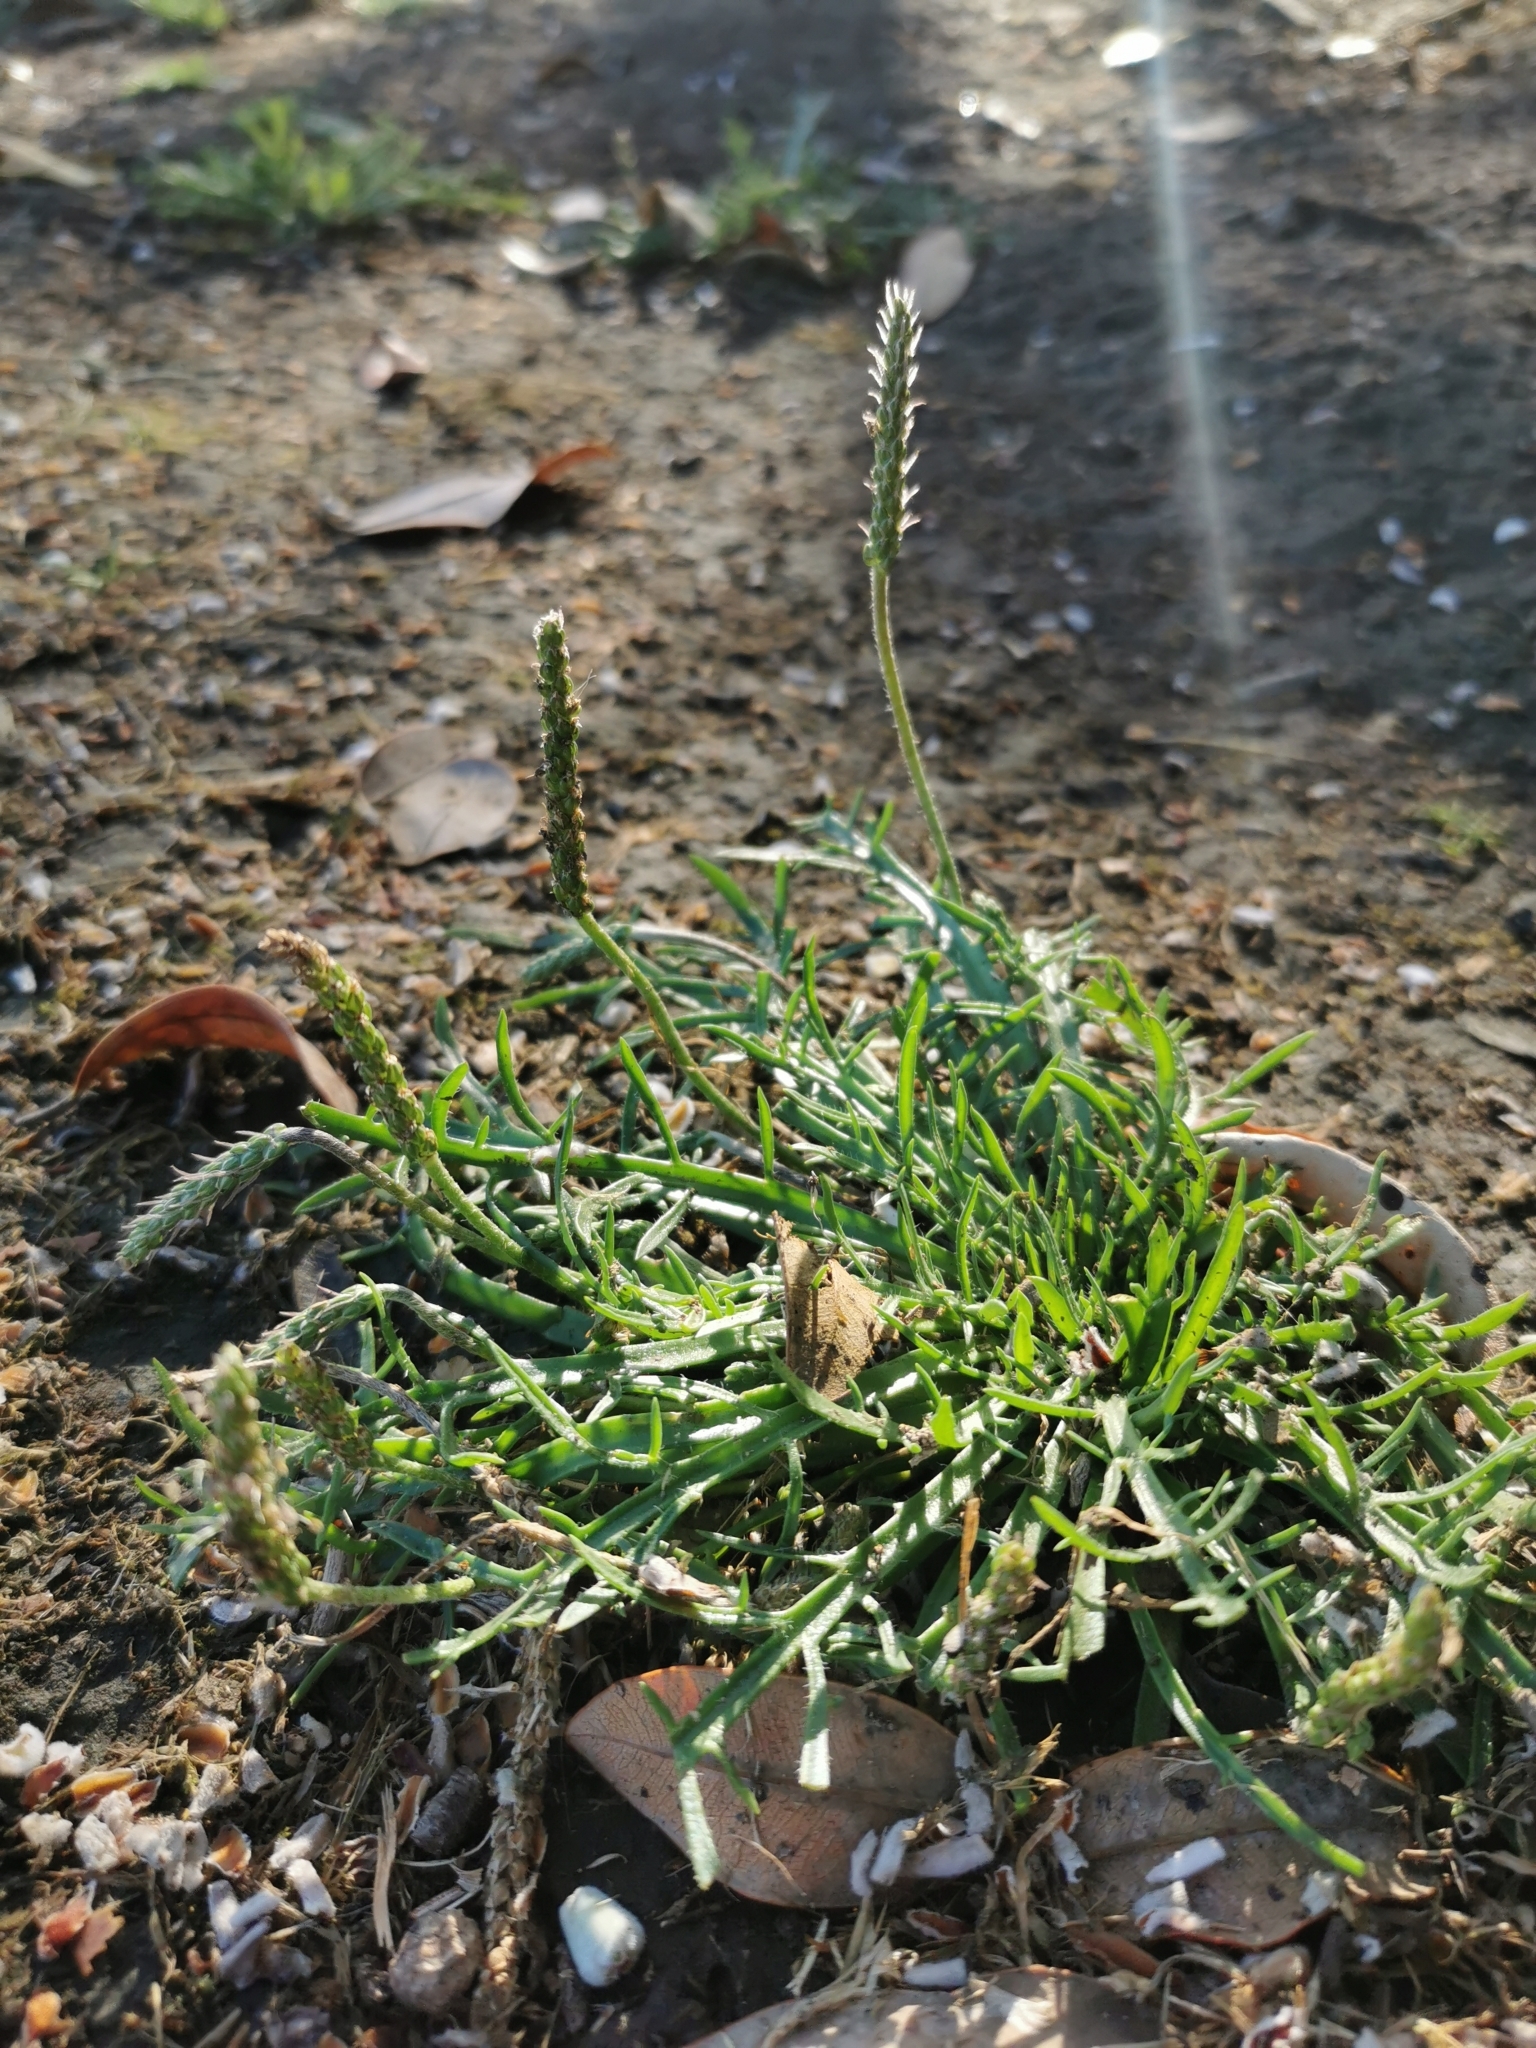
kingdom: Plantae
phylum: Tracheophyta
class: Magnoliopsida
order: Lamiales
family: Plantaginaceae
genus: Plantago
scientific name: Plantago coronopus
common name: Buck's-horn plantain
